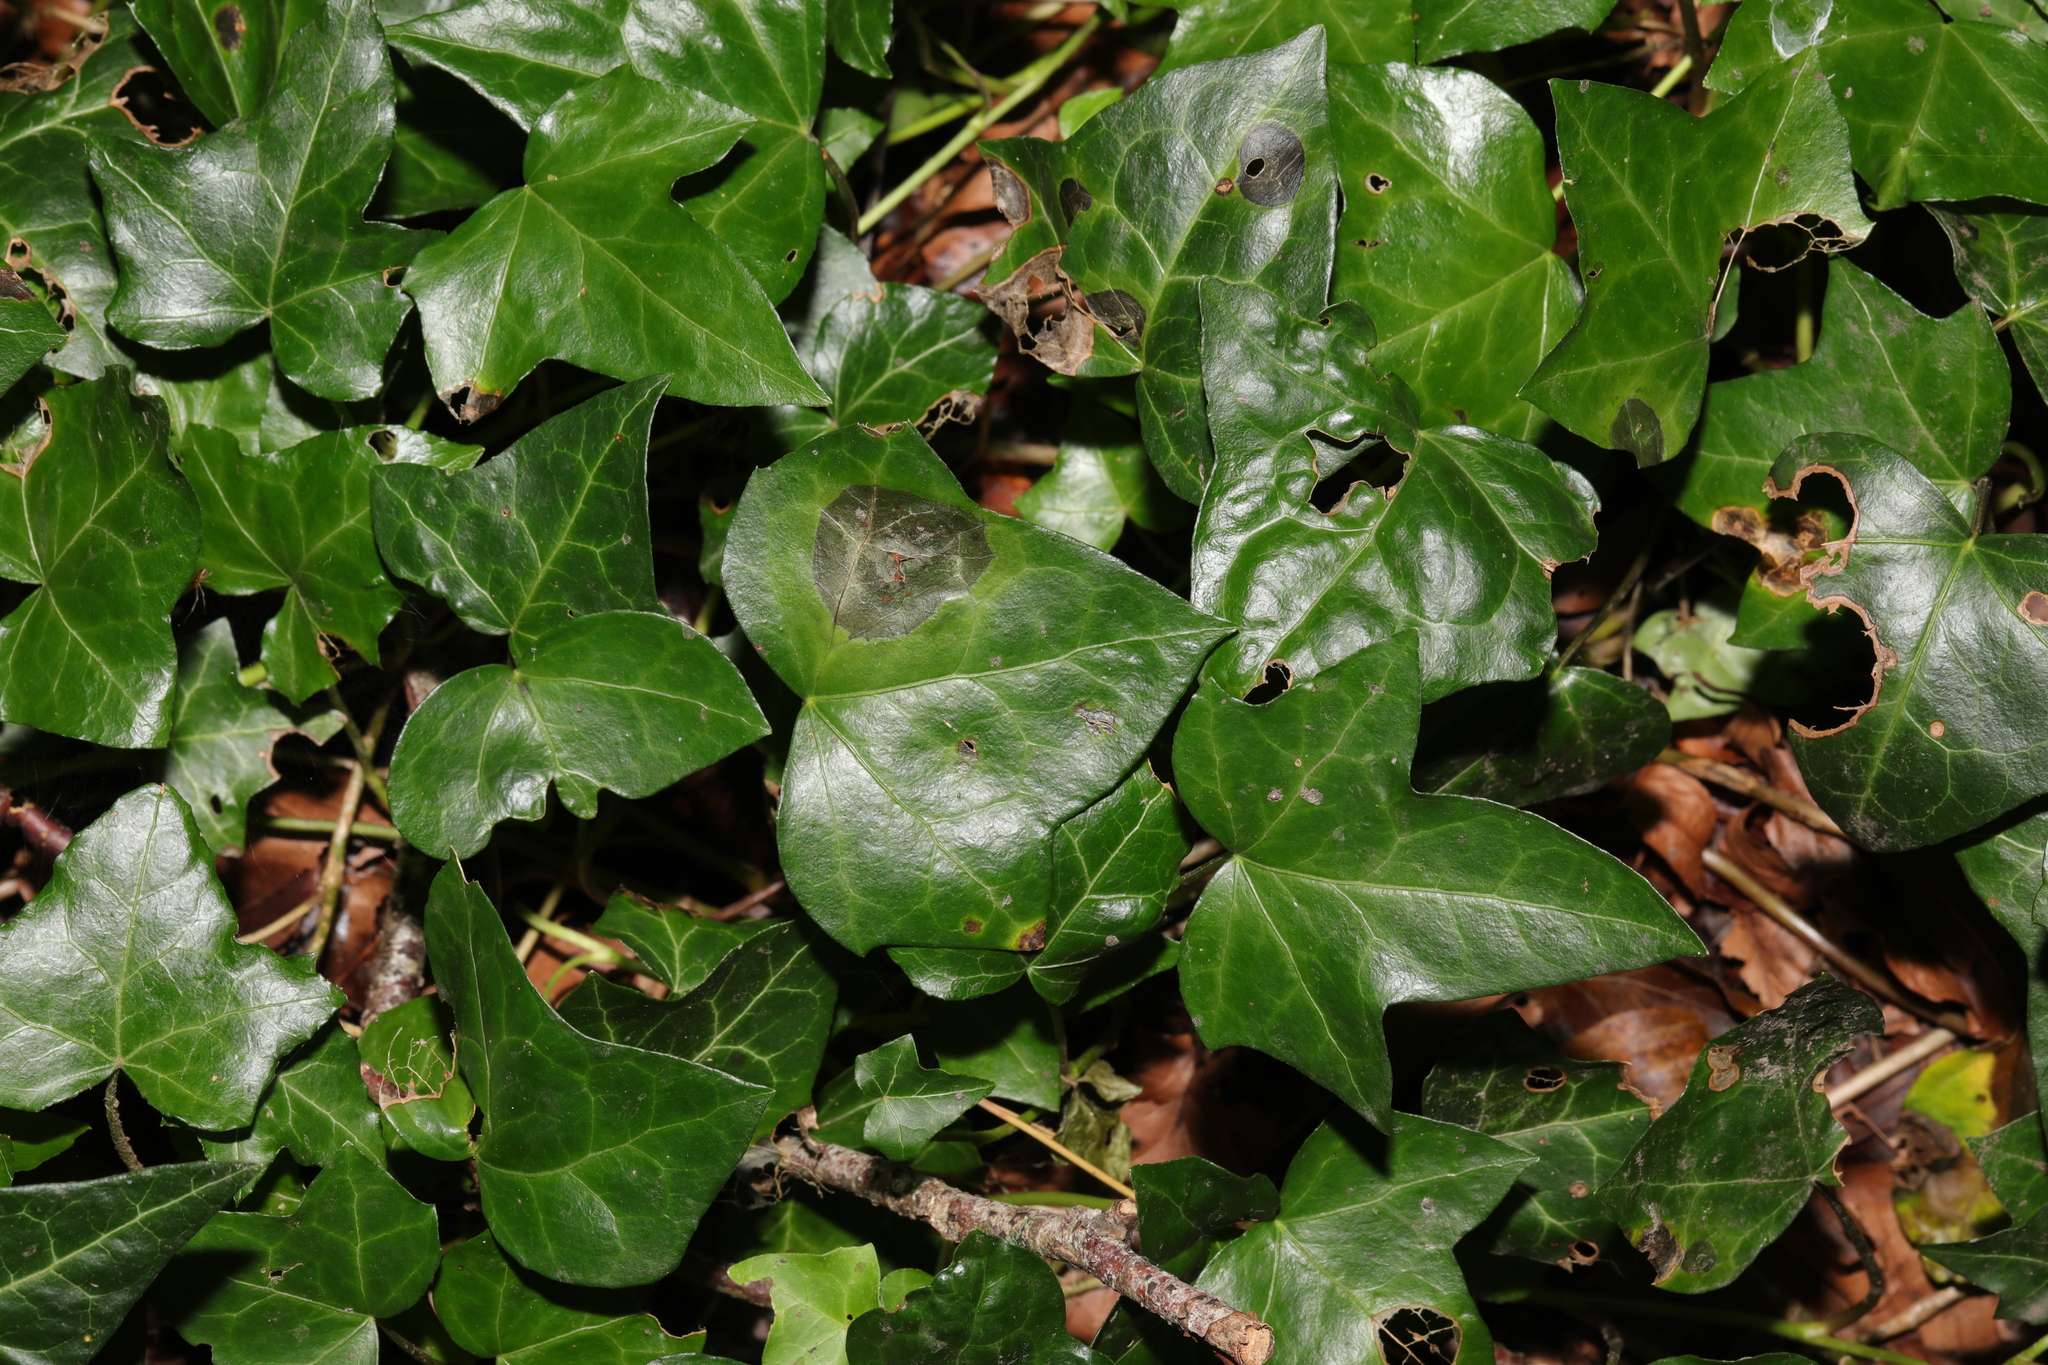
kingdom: Plantae
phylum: Tracheophyta
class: Magnoliopsida
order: Apiales
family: Araliaceae
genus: Hedera
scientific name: Hedera helix
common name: Ivy
